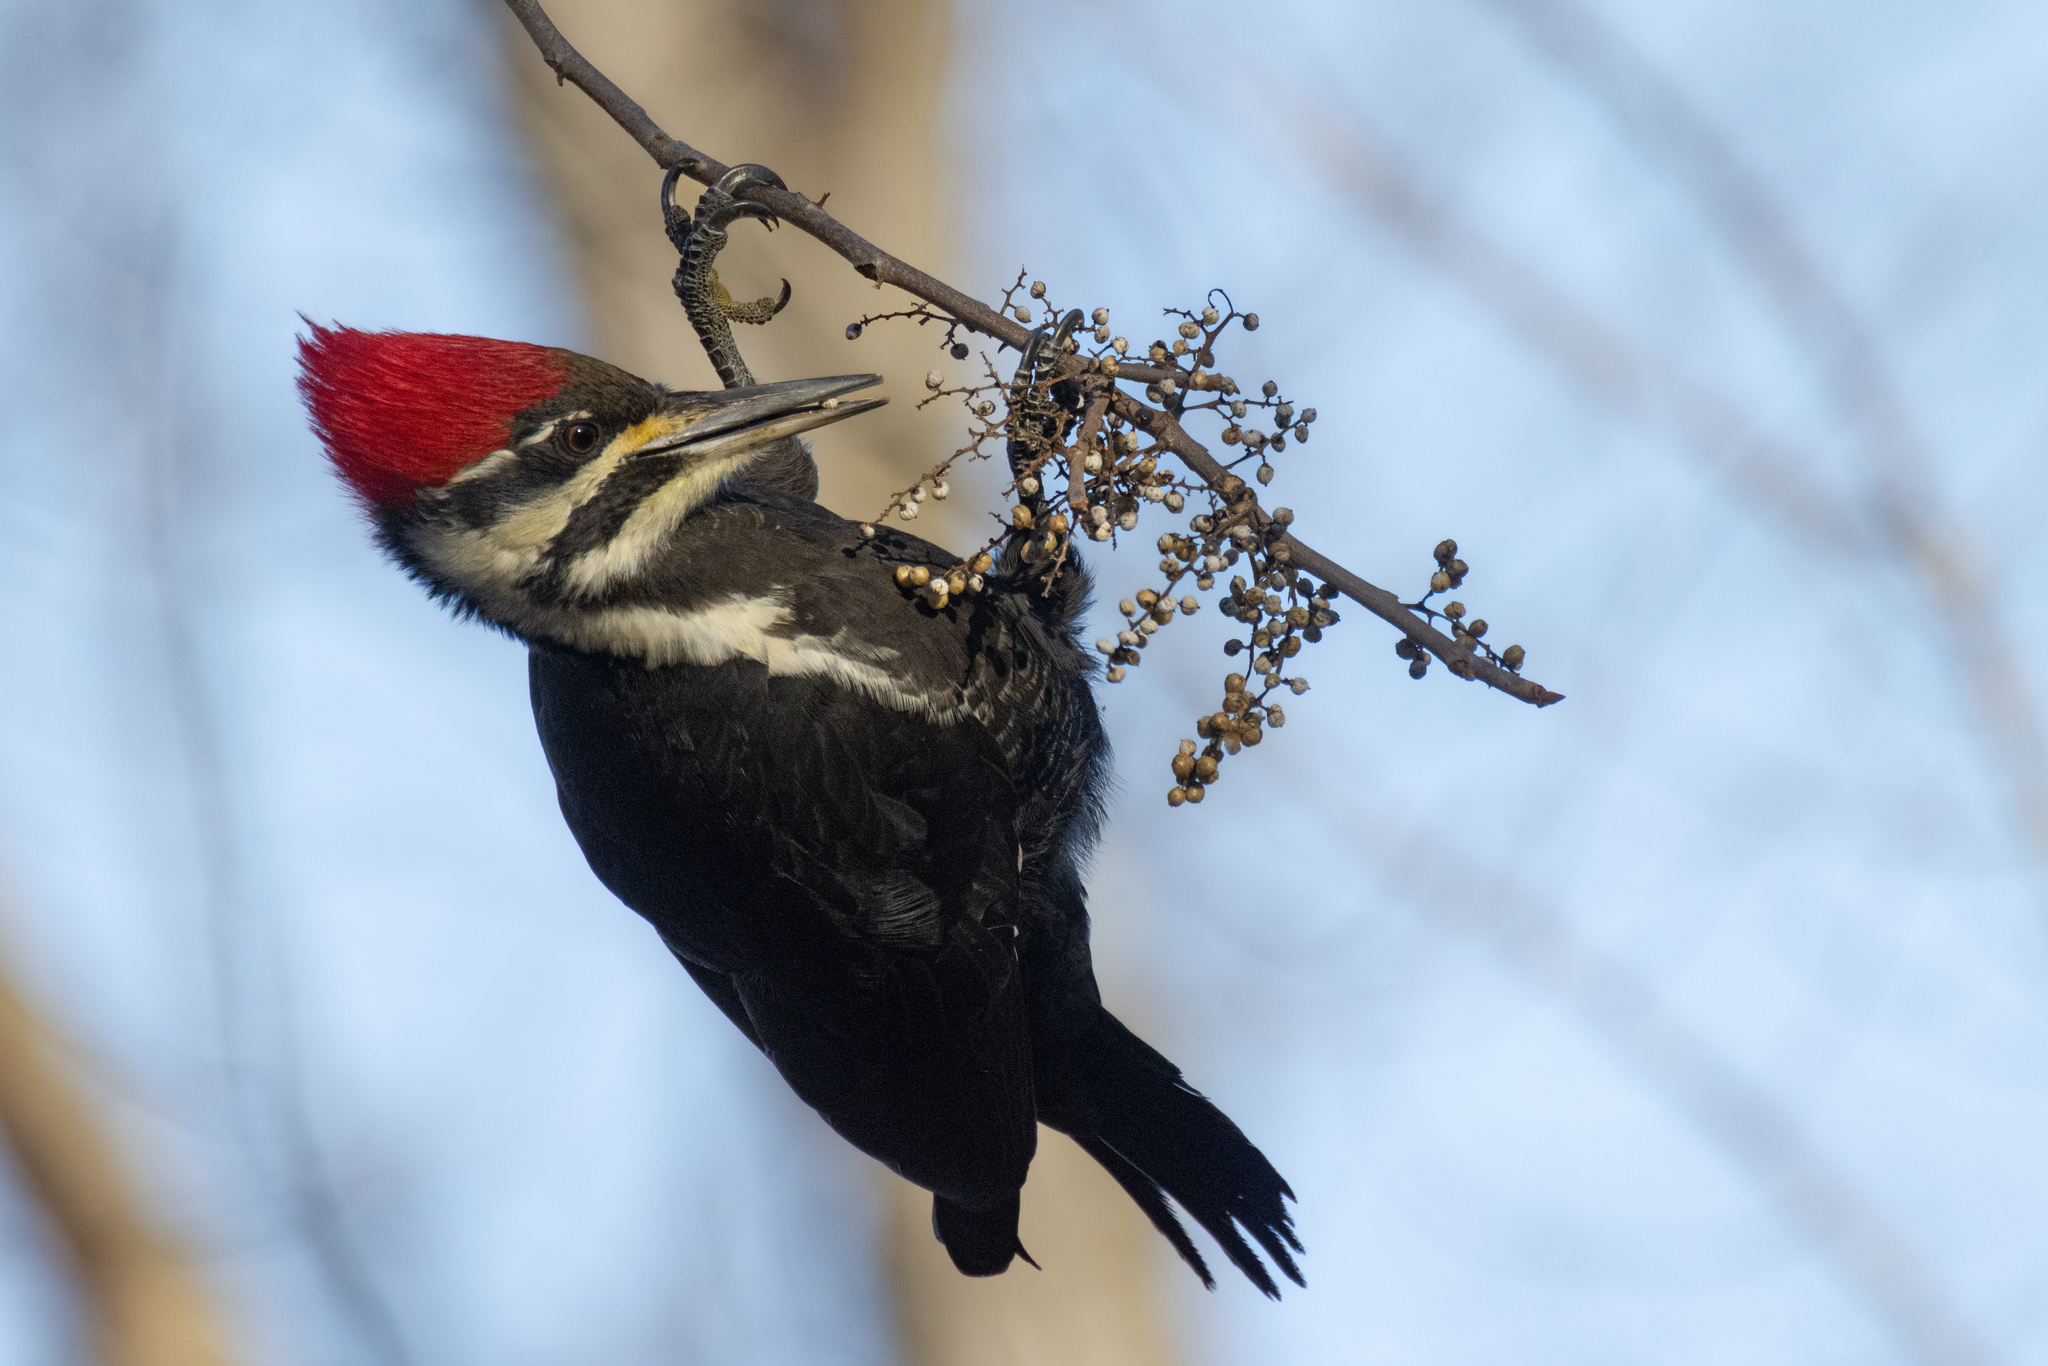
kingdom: Animalia
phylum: Chordata
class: Aves
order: Piciformes
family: Picidae
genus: Dryocopus
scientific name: Dryocopus pileatus
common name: Pileated woodpecker
